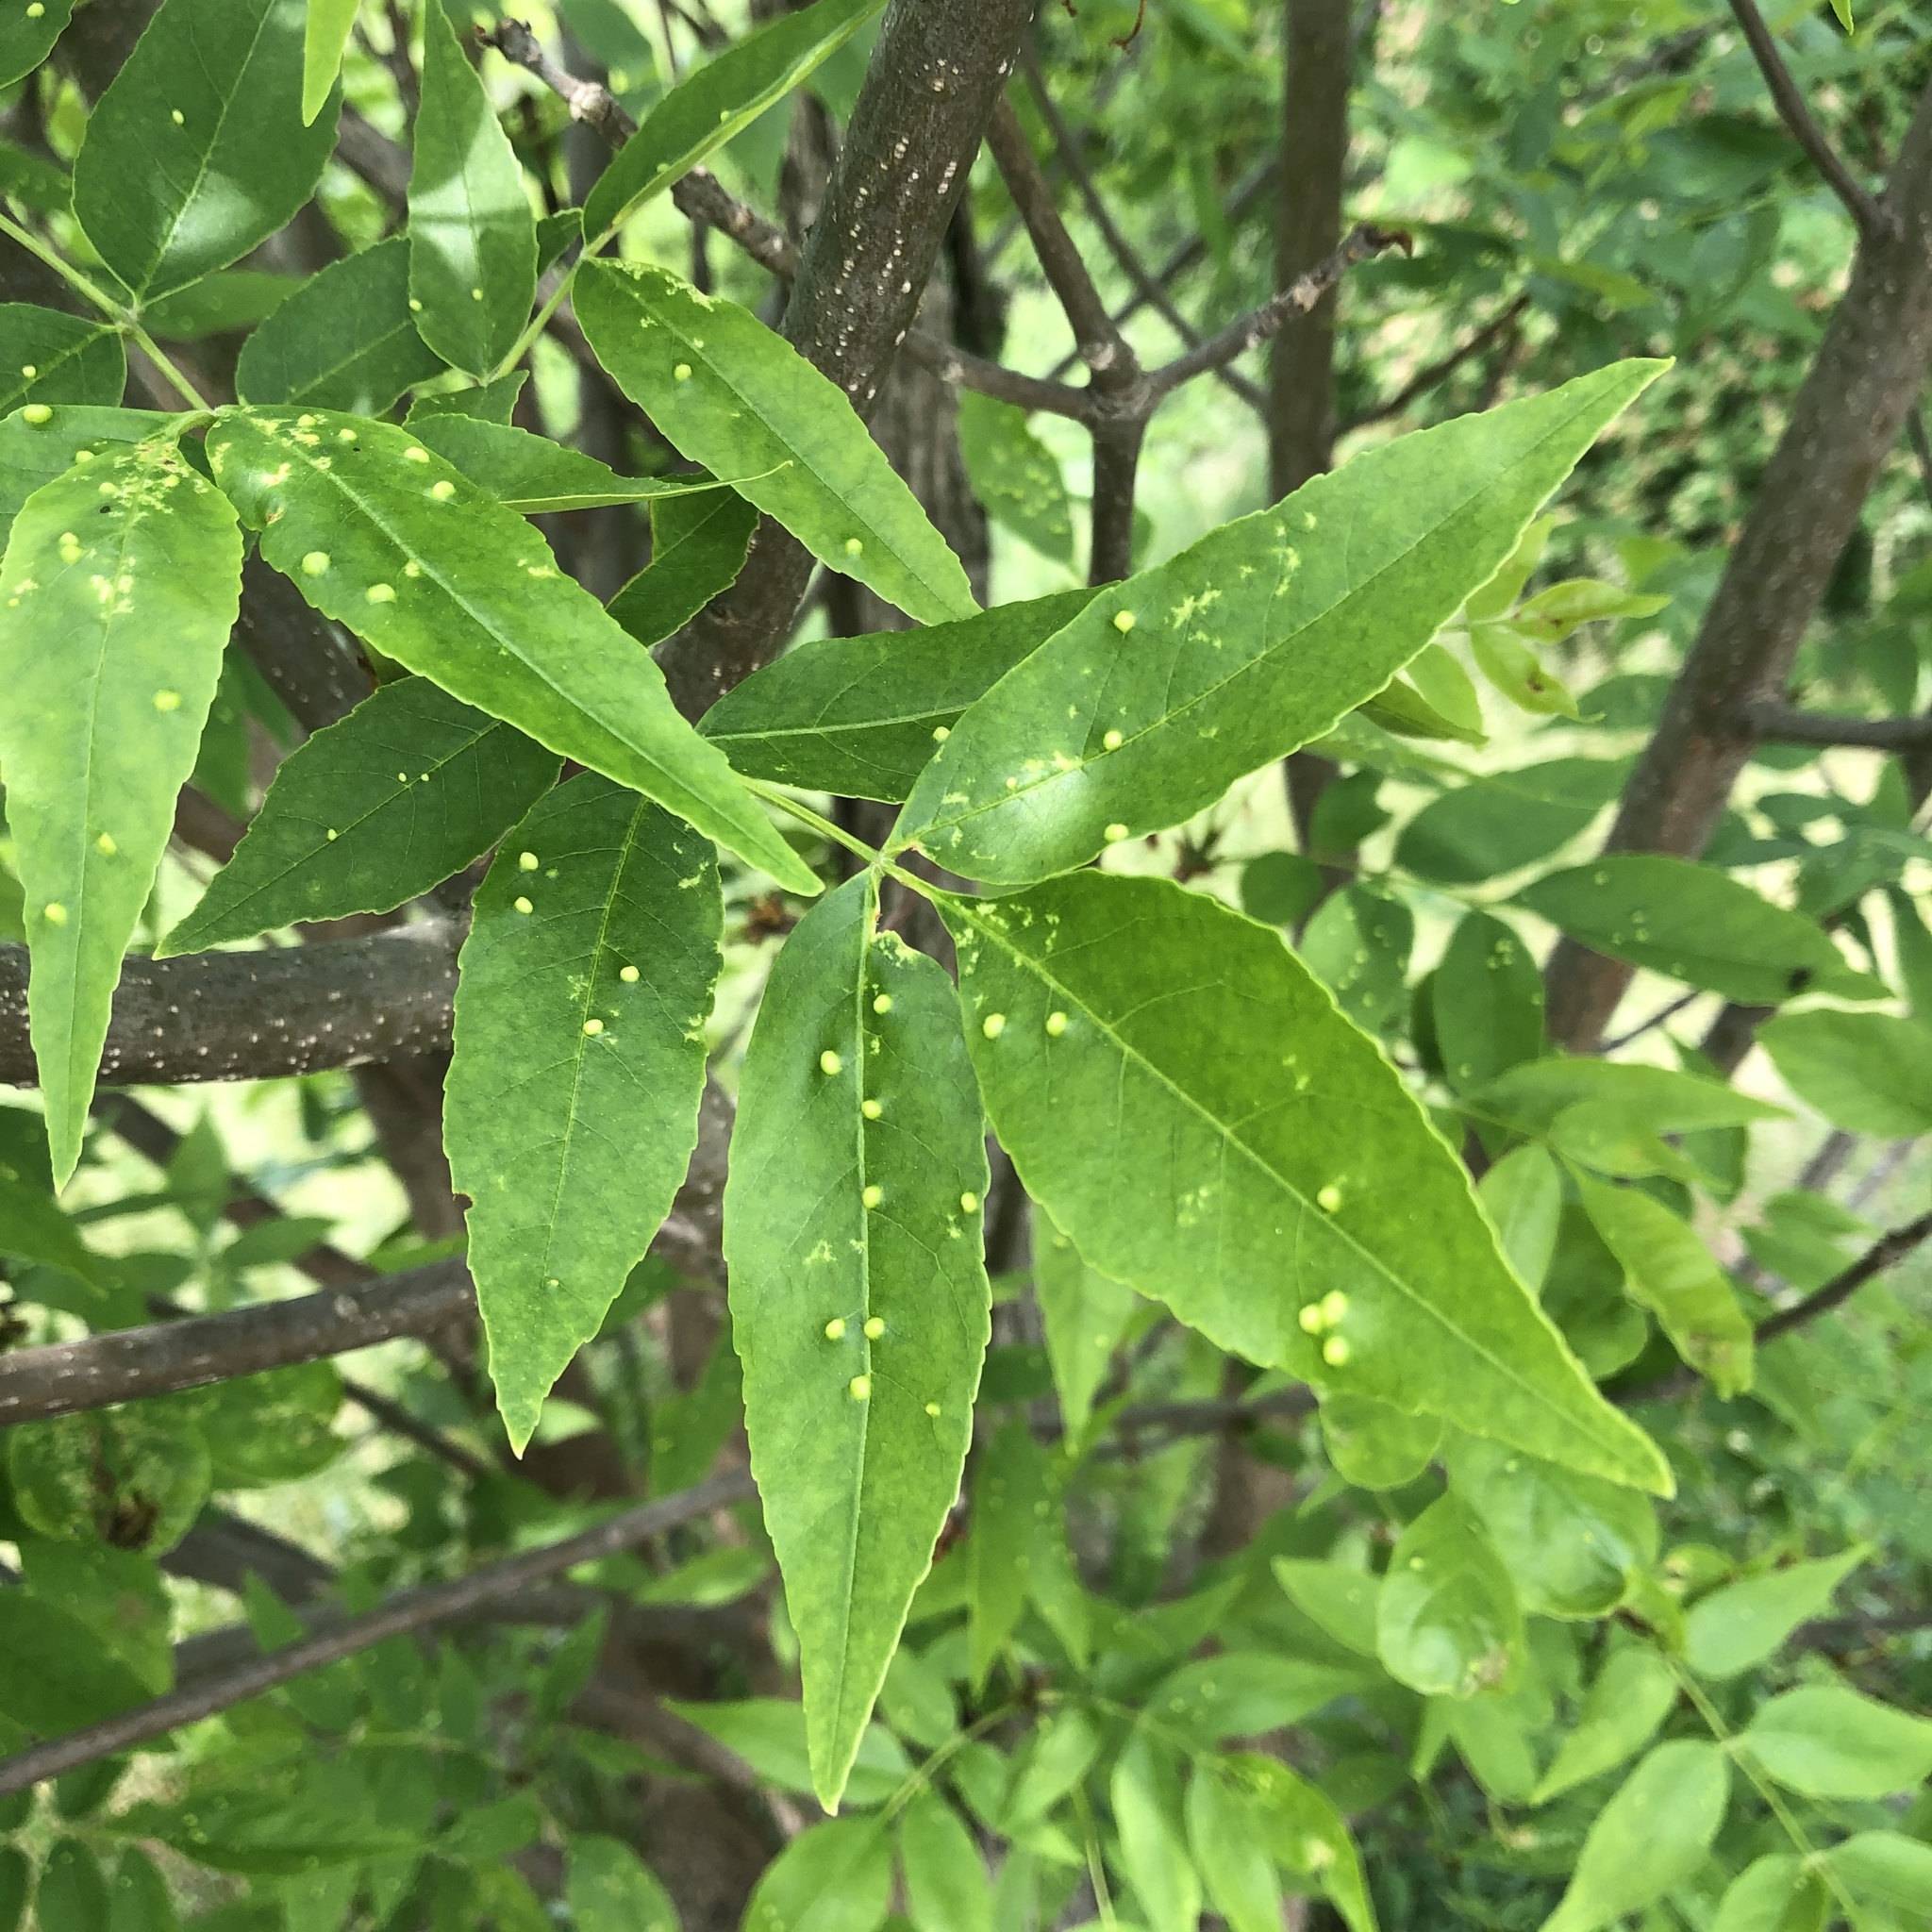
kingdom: Plantae
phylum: Tracheophyta
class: Magnoliopsida
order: Lamiales
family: Oleaceae
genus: Fraxinus
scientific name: Fraxinus pennsylvanica
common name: Green ash
